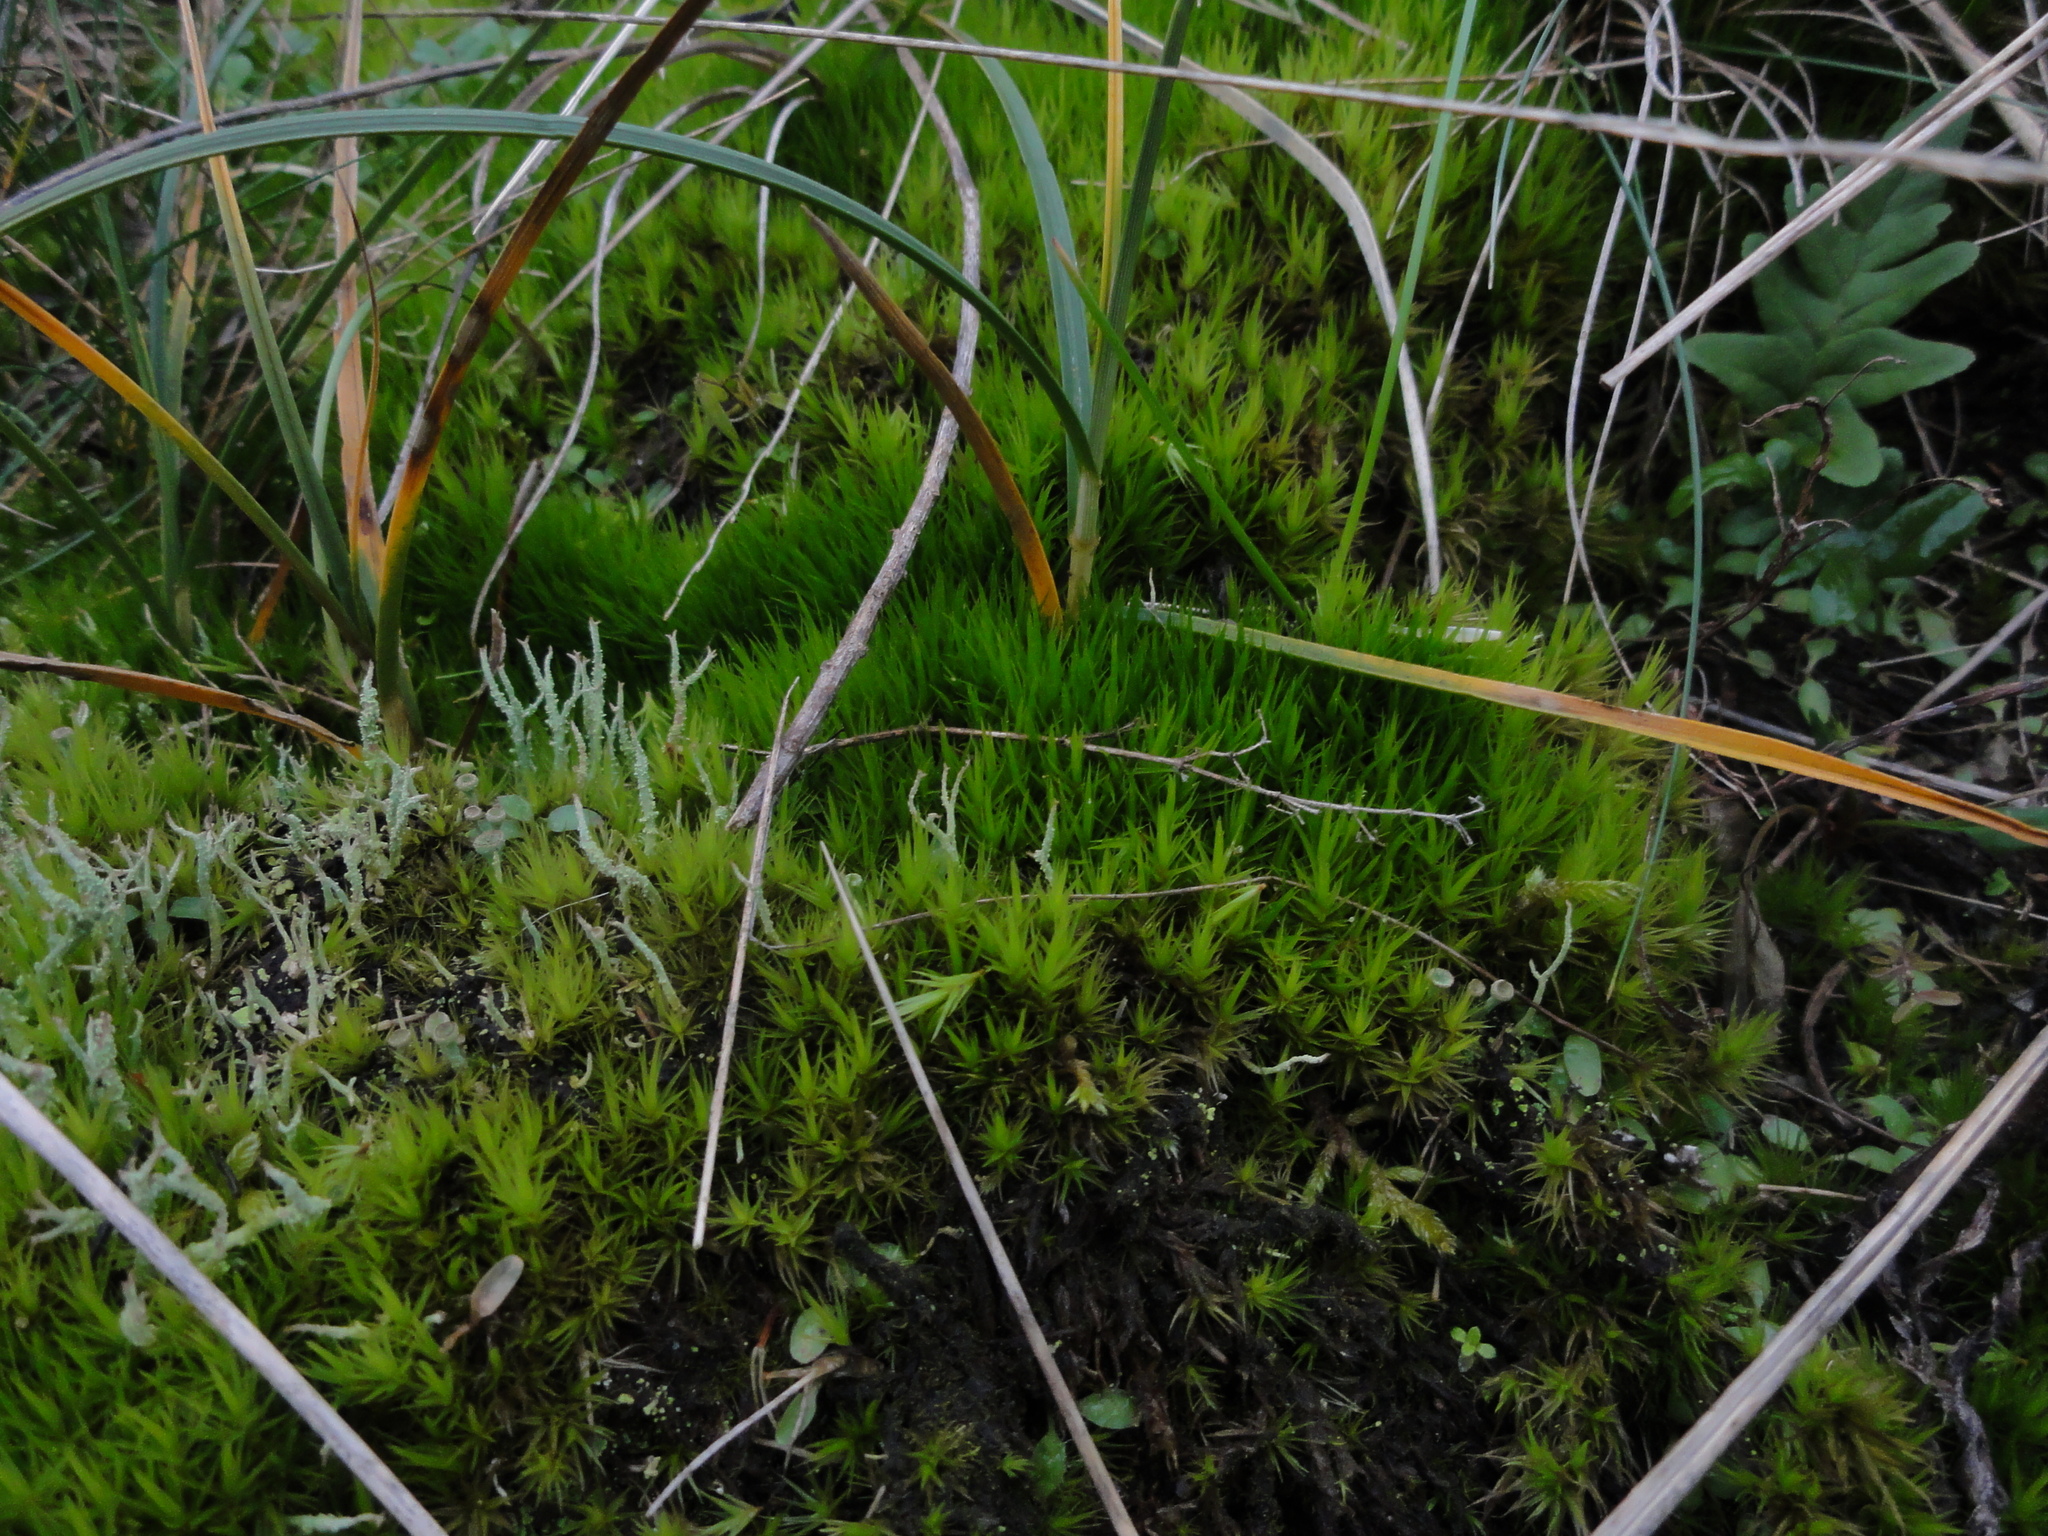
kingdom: Plantae
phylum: Bryophyta
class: Bryopsida
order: Dicranales
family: Dicranaceae
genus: Dicranum
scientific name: Dicranum
